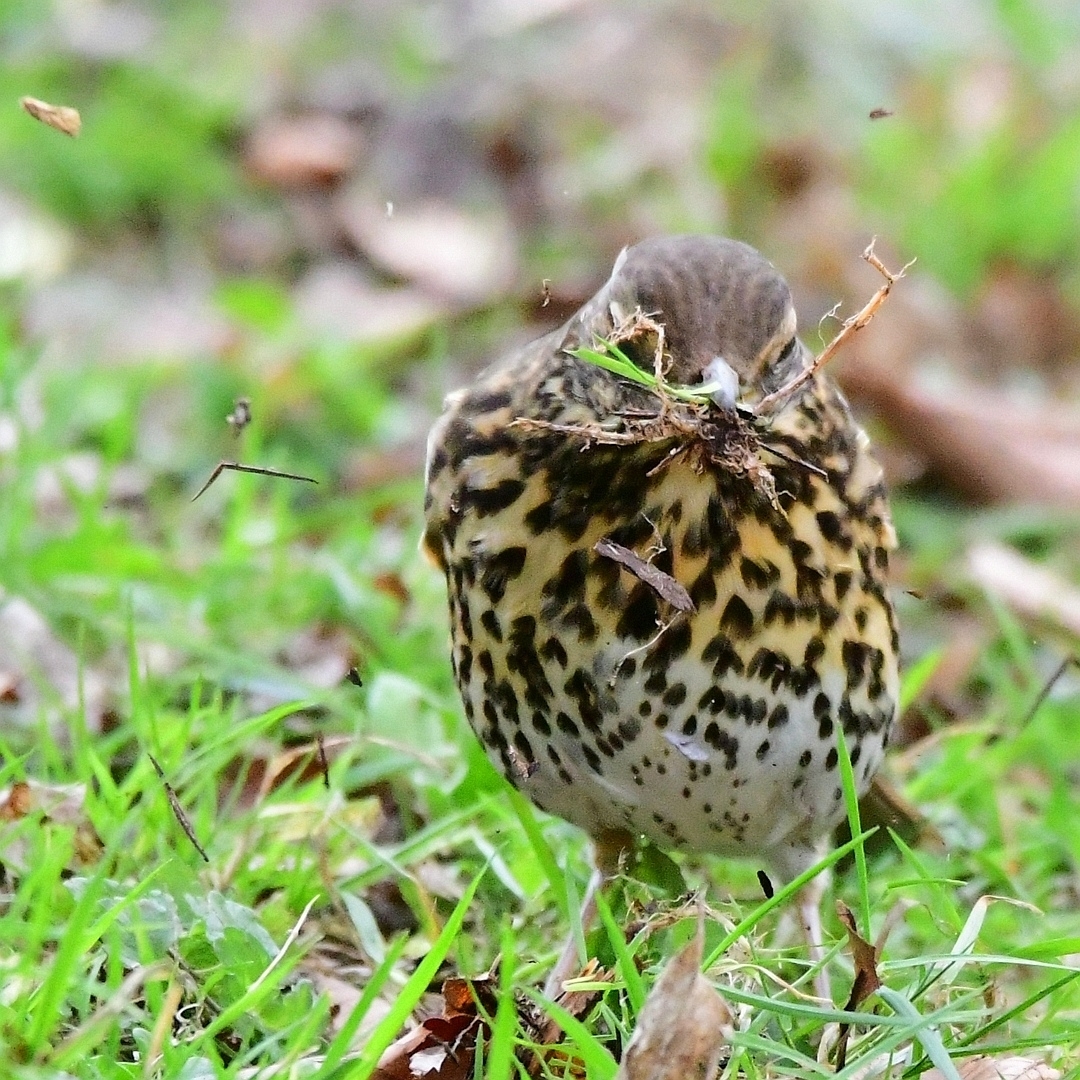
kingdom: Animalia
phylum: Chordata
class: Aves
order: Passeriformes
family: Turdidae
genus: Turdus
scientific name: Turdus philomelos
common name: Song thrush
